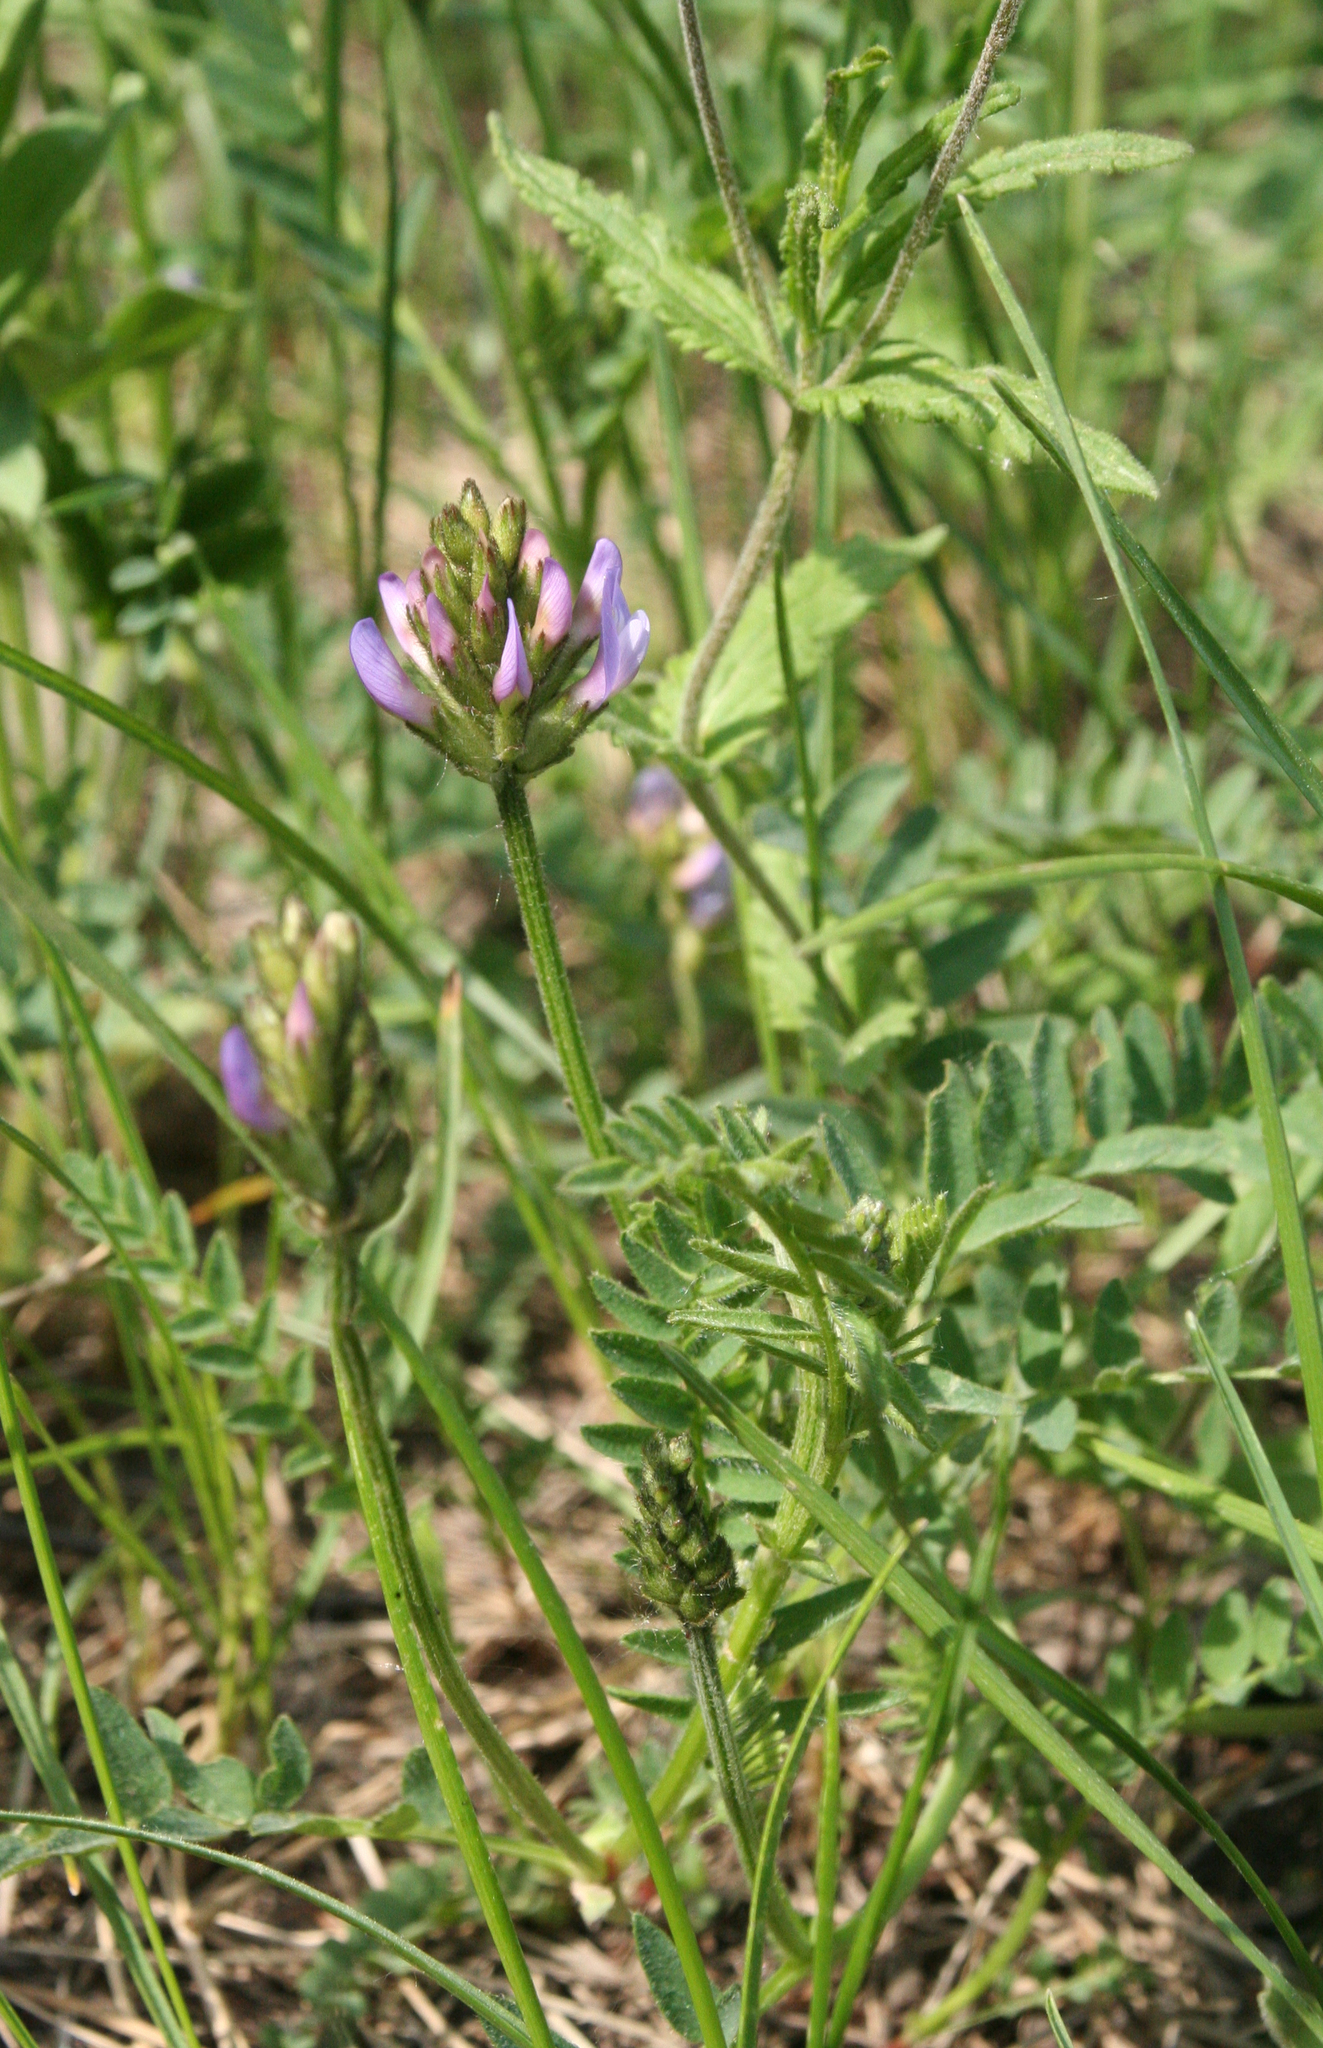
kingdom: Plantae
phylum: Tracheophyta
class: Magnoliopsida
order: Fabales
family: Fabaceae
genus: Astragalus
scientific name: Astragalus danicus
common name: Purple milk-vetch
